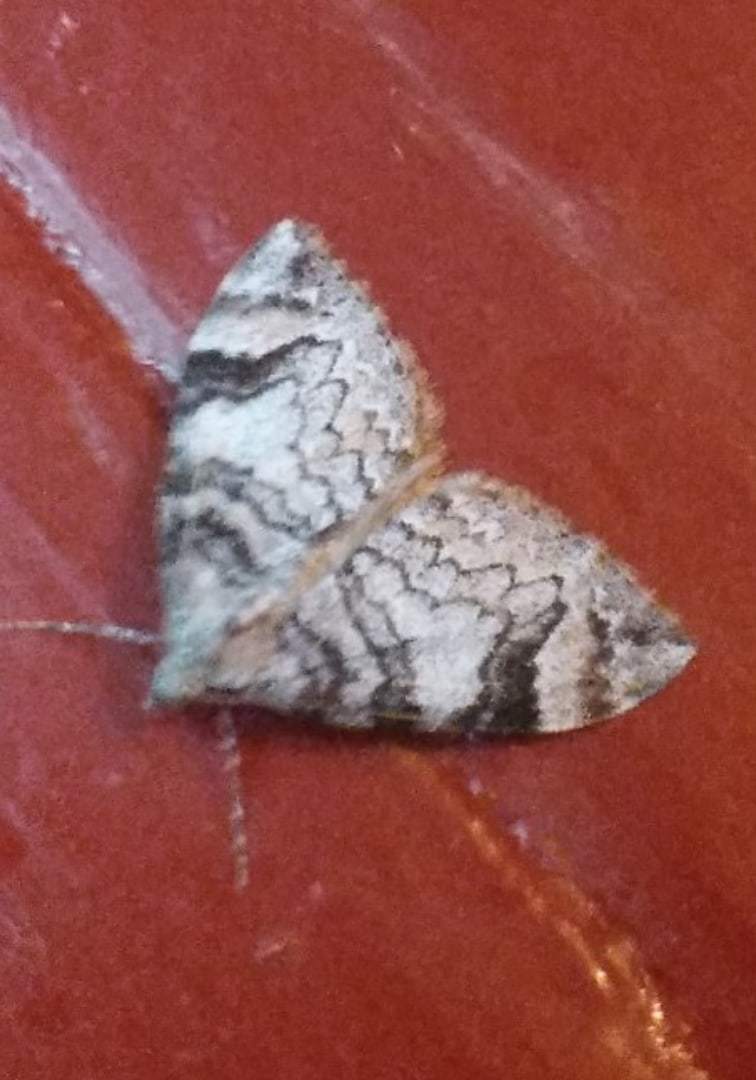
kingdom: Animalia
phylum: Arthropoda
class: Insecta
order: Lepidoptera
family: Geometridae
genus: Dysstroma
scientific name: Dysstroma citrata
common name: Dark marbled carpet
